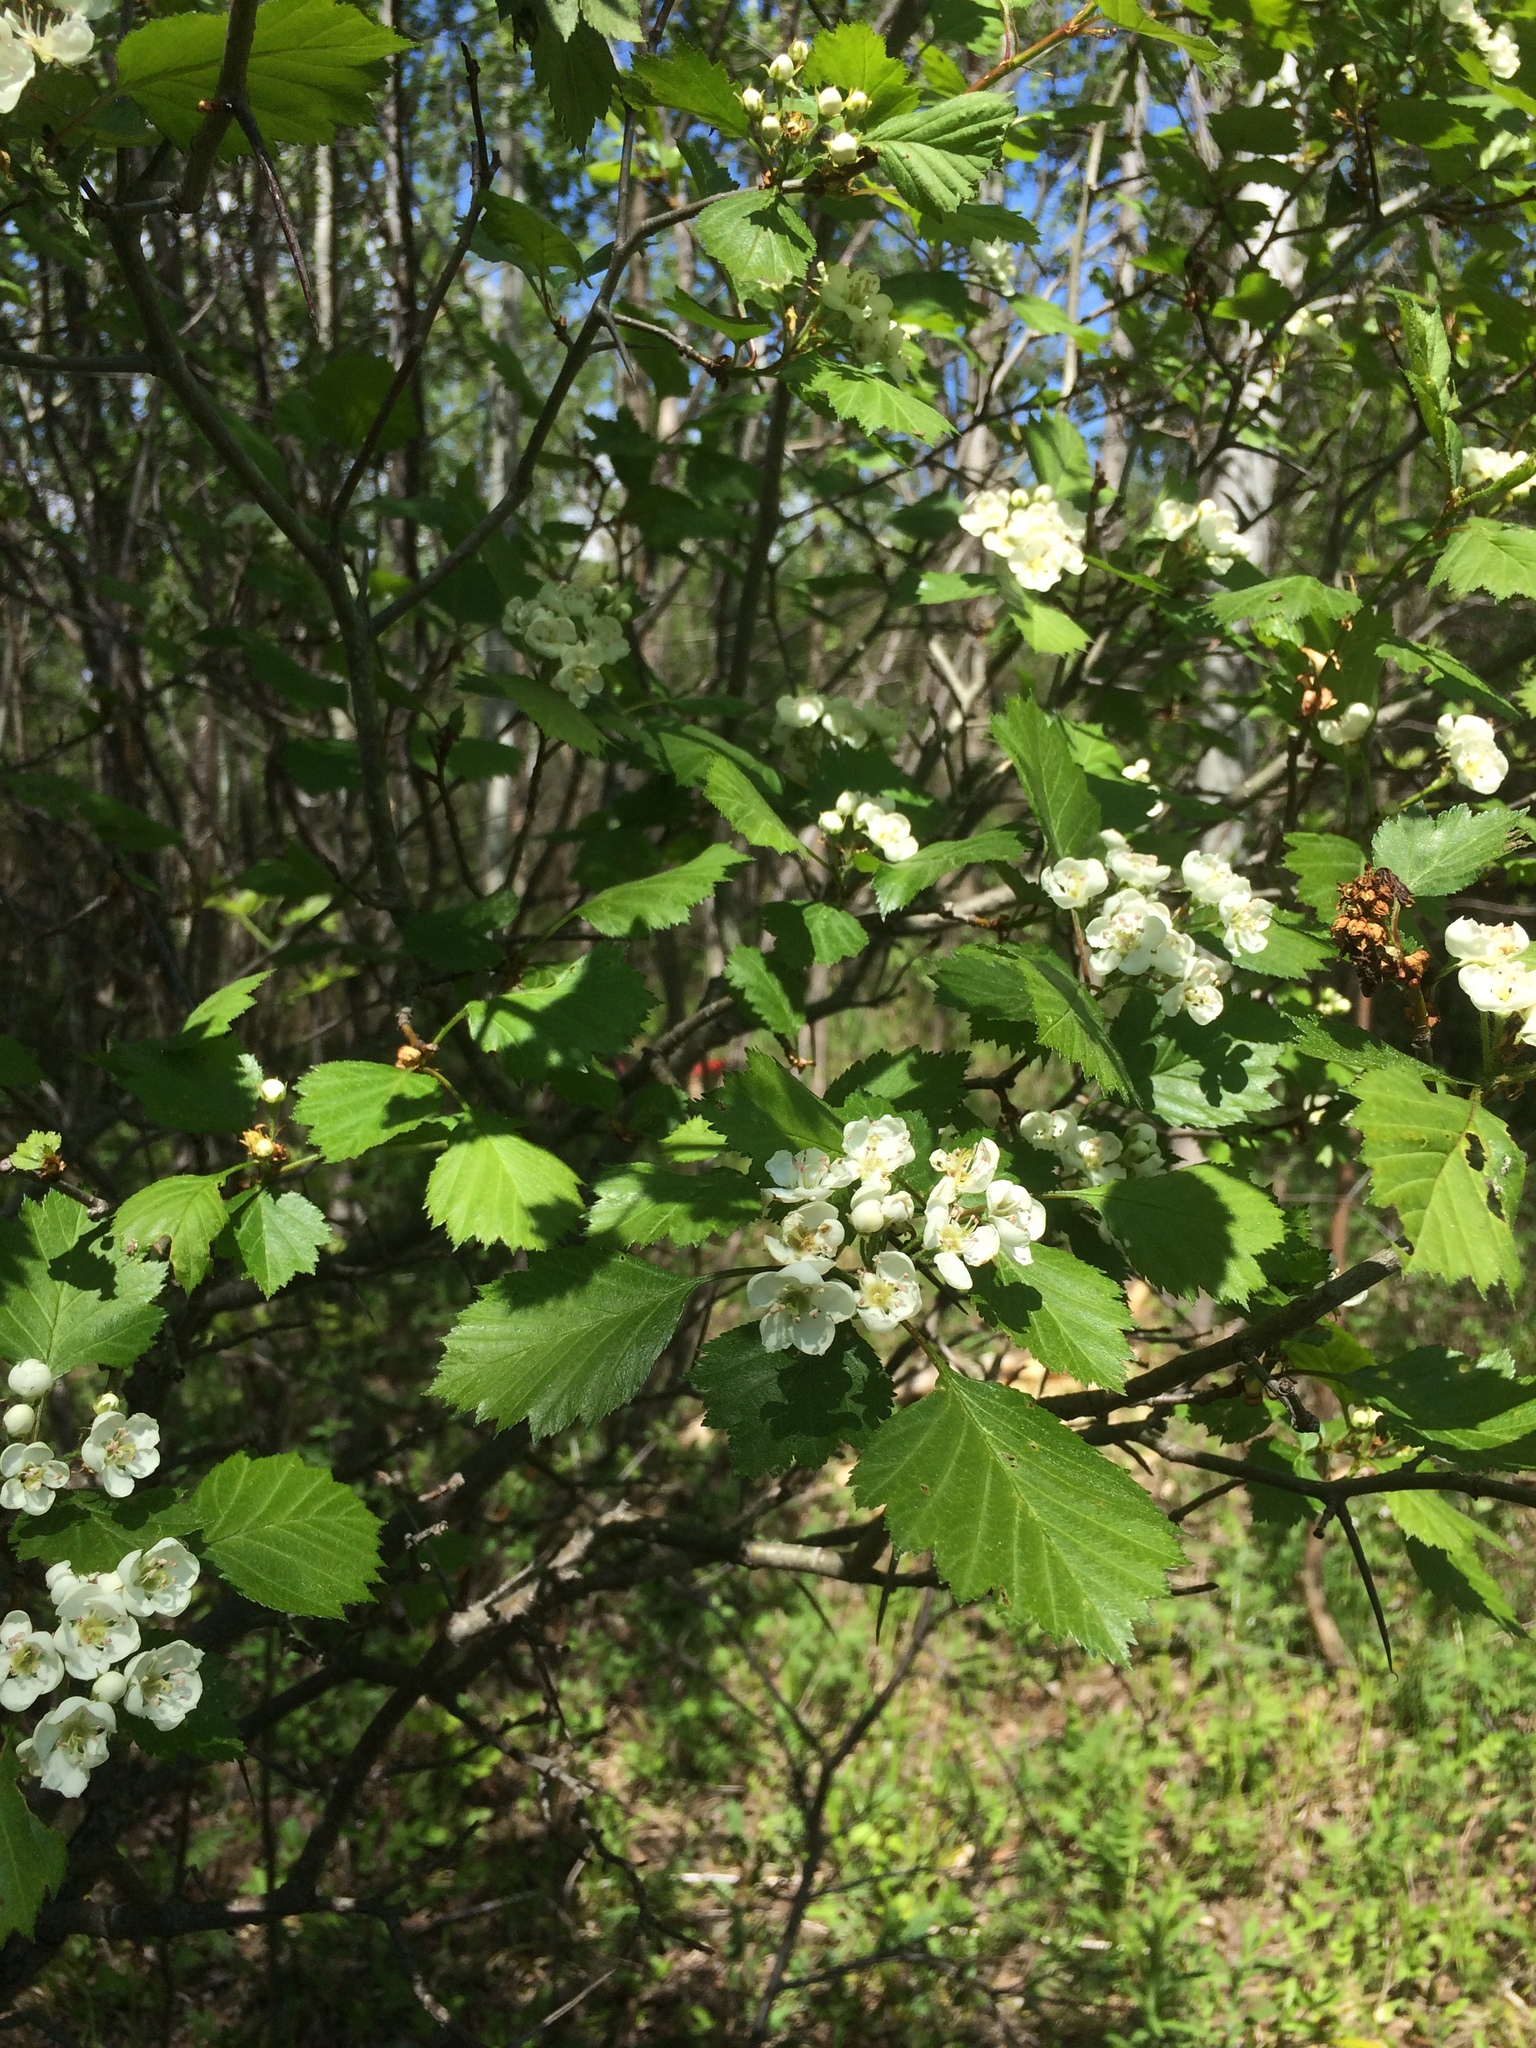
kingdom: Plantae
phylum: Tracheophyta
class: Magnoliopsida
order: Rosales
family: Rosaceae
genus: Crataegus
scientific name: Crataegus flabellata
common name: Bosc's hawthorn
